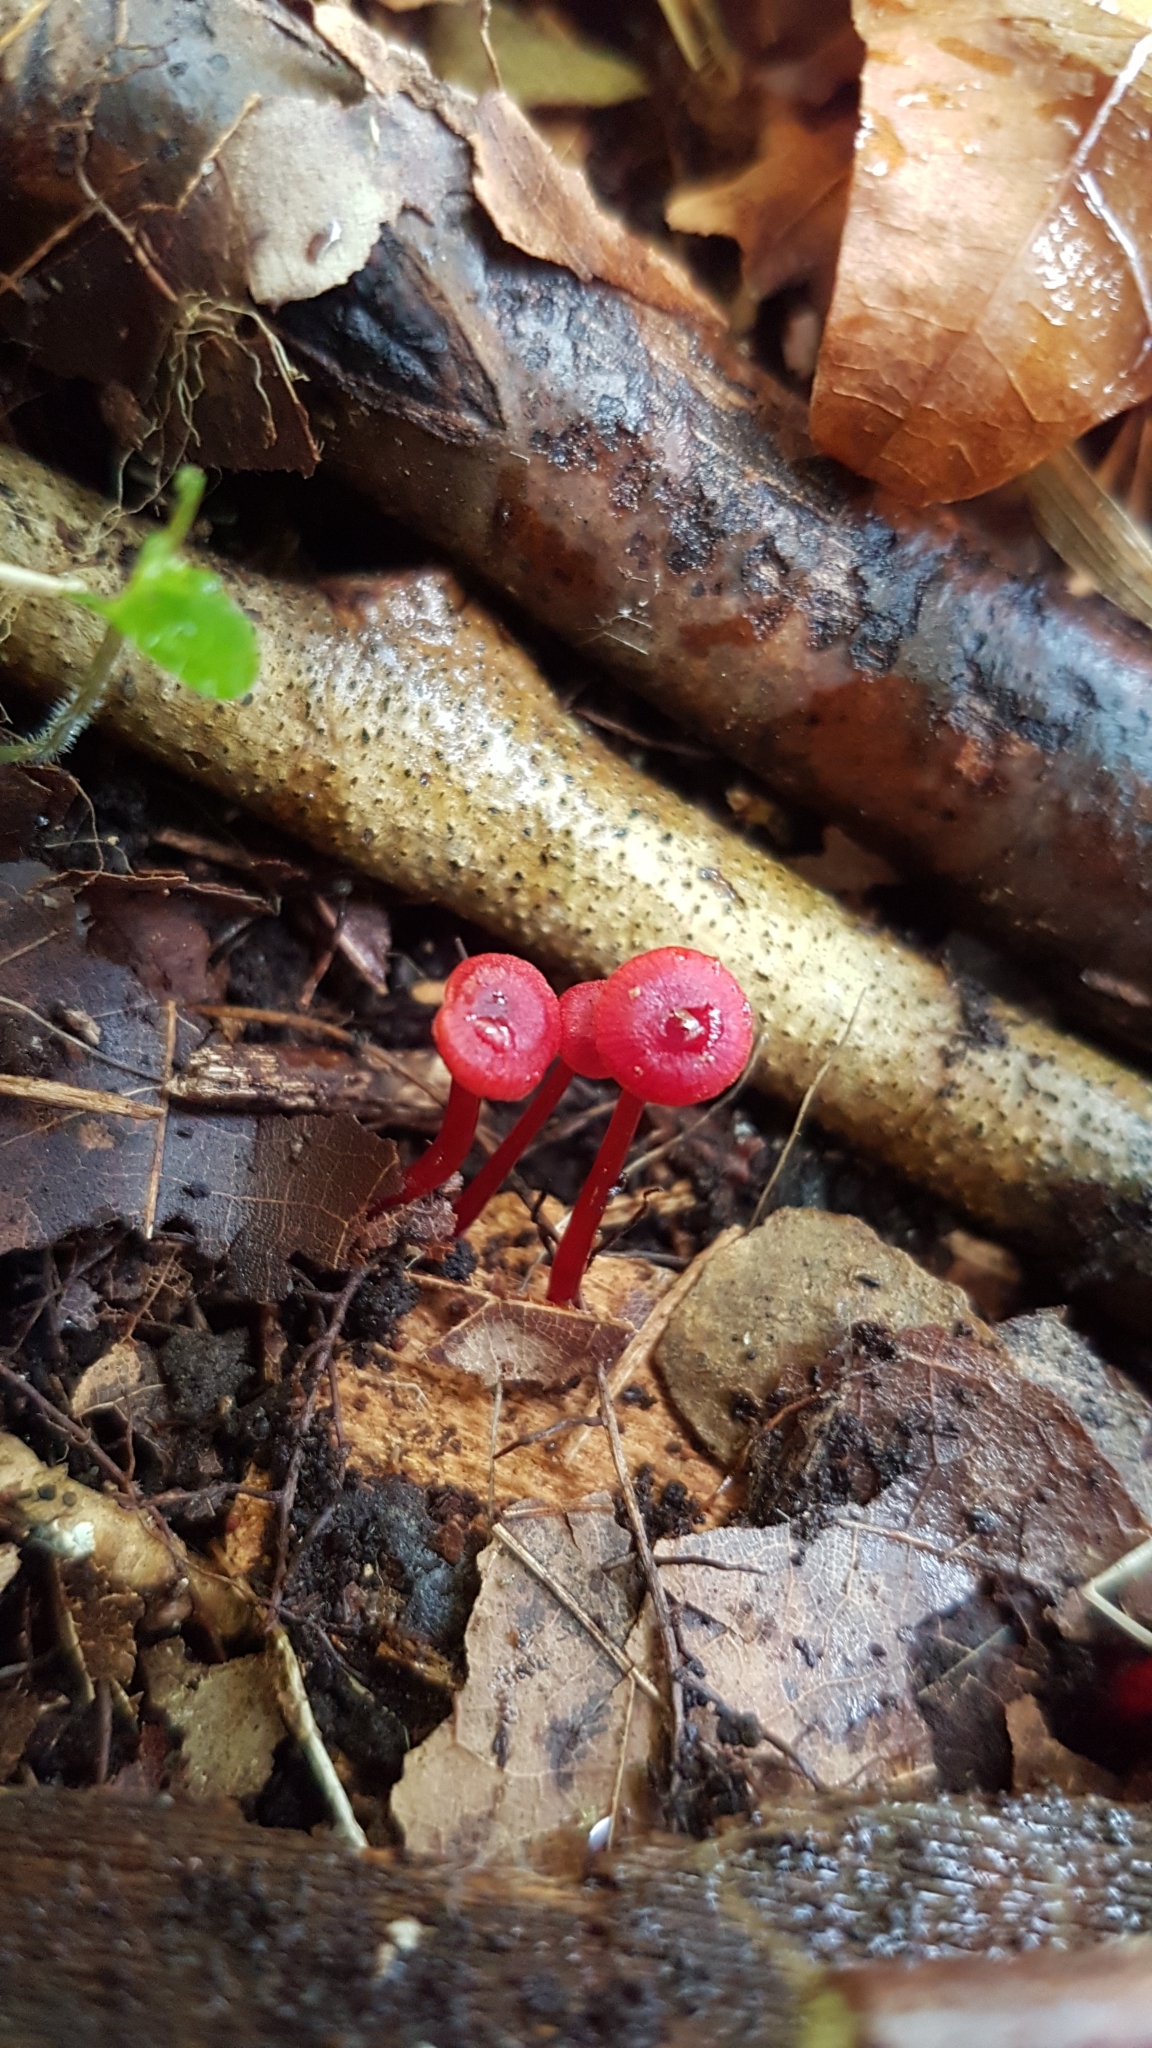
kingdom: Fungi
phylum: Basidiomycota
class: Agaricomycetes
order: Agaricales
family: Mycenaceae
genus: Cruentomycena
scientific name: Cruentomycena viscidocruenta
